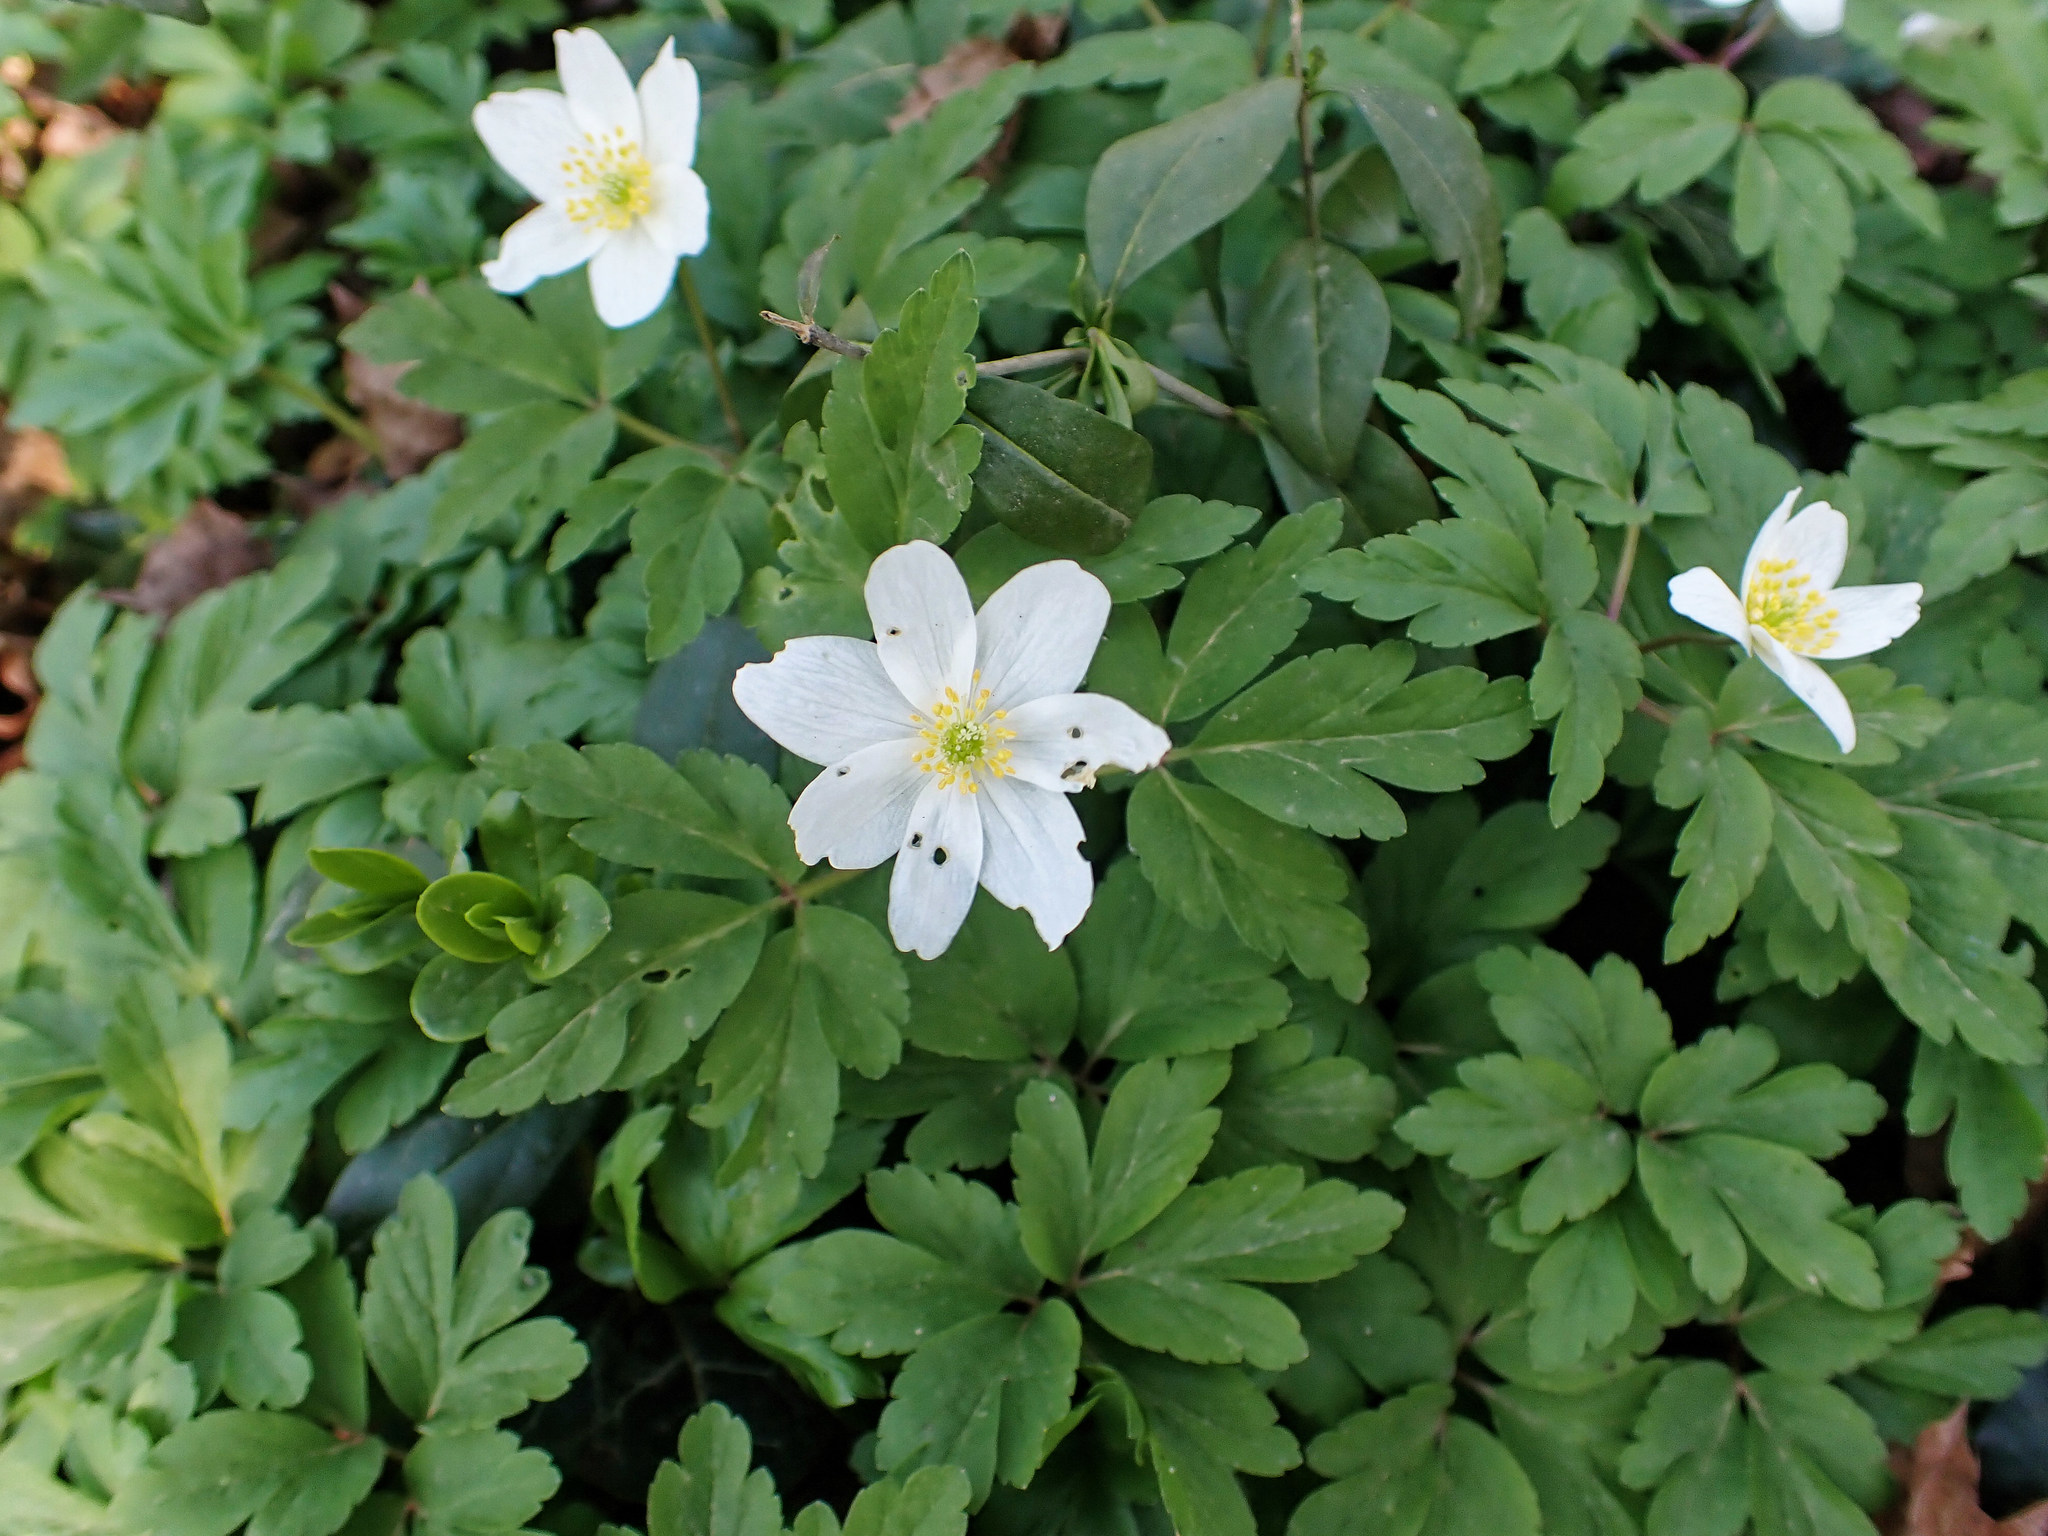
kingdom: Plantae
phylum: Tracheophyta
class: Magnoliopsida
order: Ranunculales
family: Ranunculaceae
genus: Anemone
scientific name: Anemone nemorosa
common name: Wood anemone
